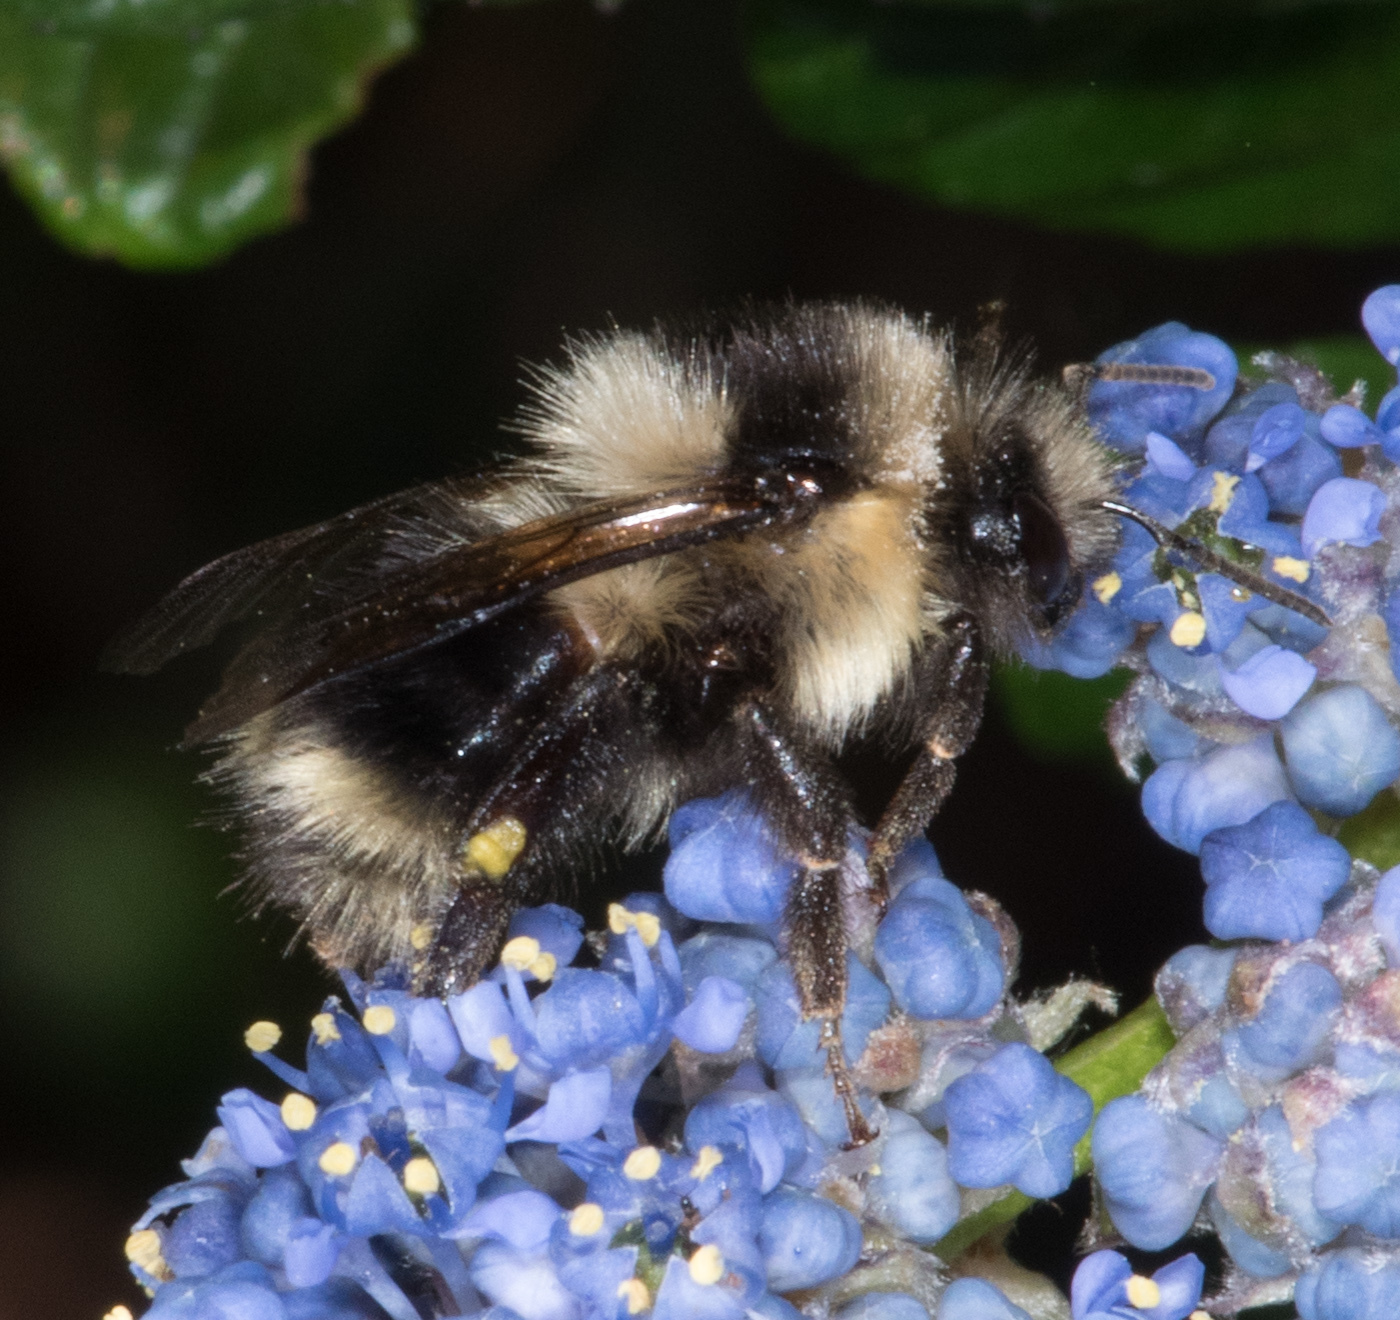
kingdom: Animalia
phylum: Arthropoda
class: Insecta
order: Hymenoptera
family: Apidae
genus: Bombus
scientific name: Bombus melanopygus
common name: Black tail bumble bee
